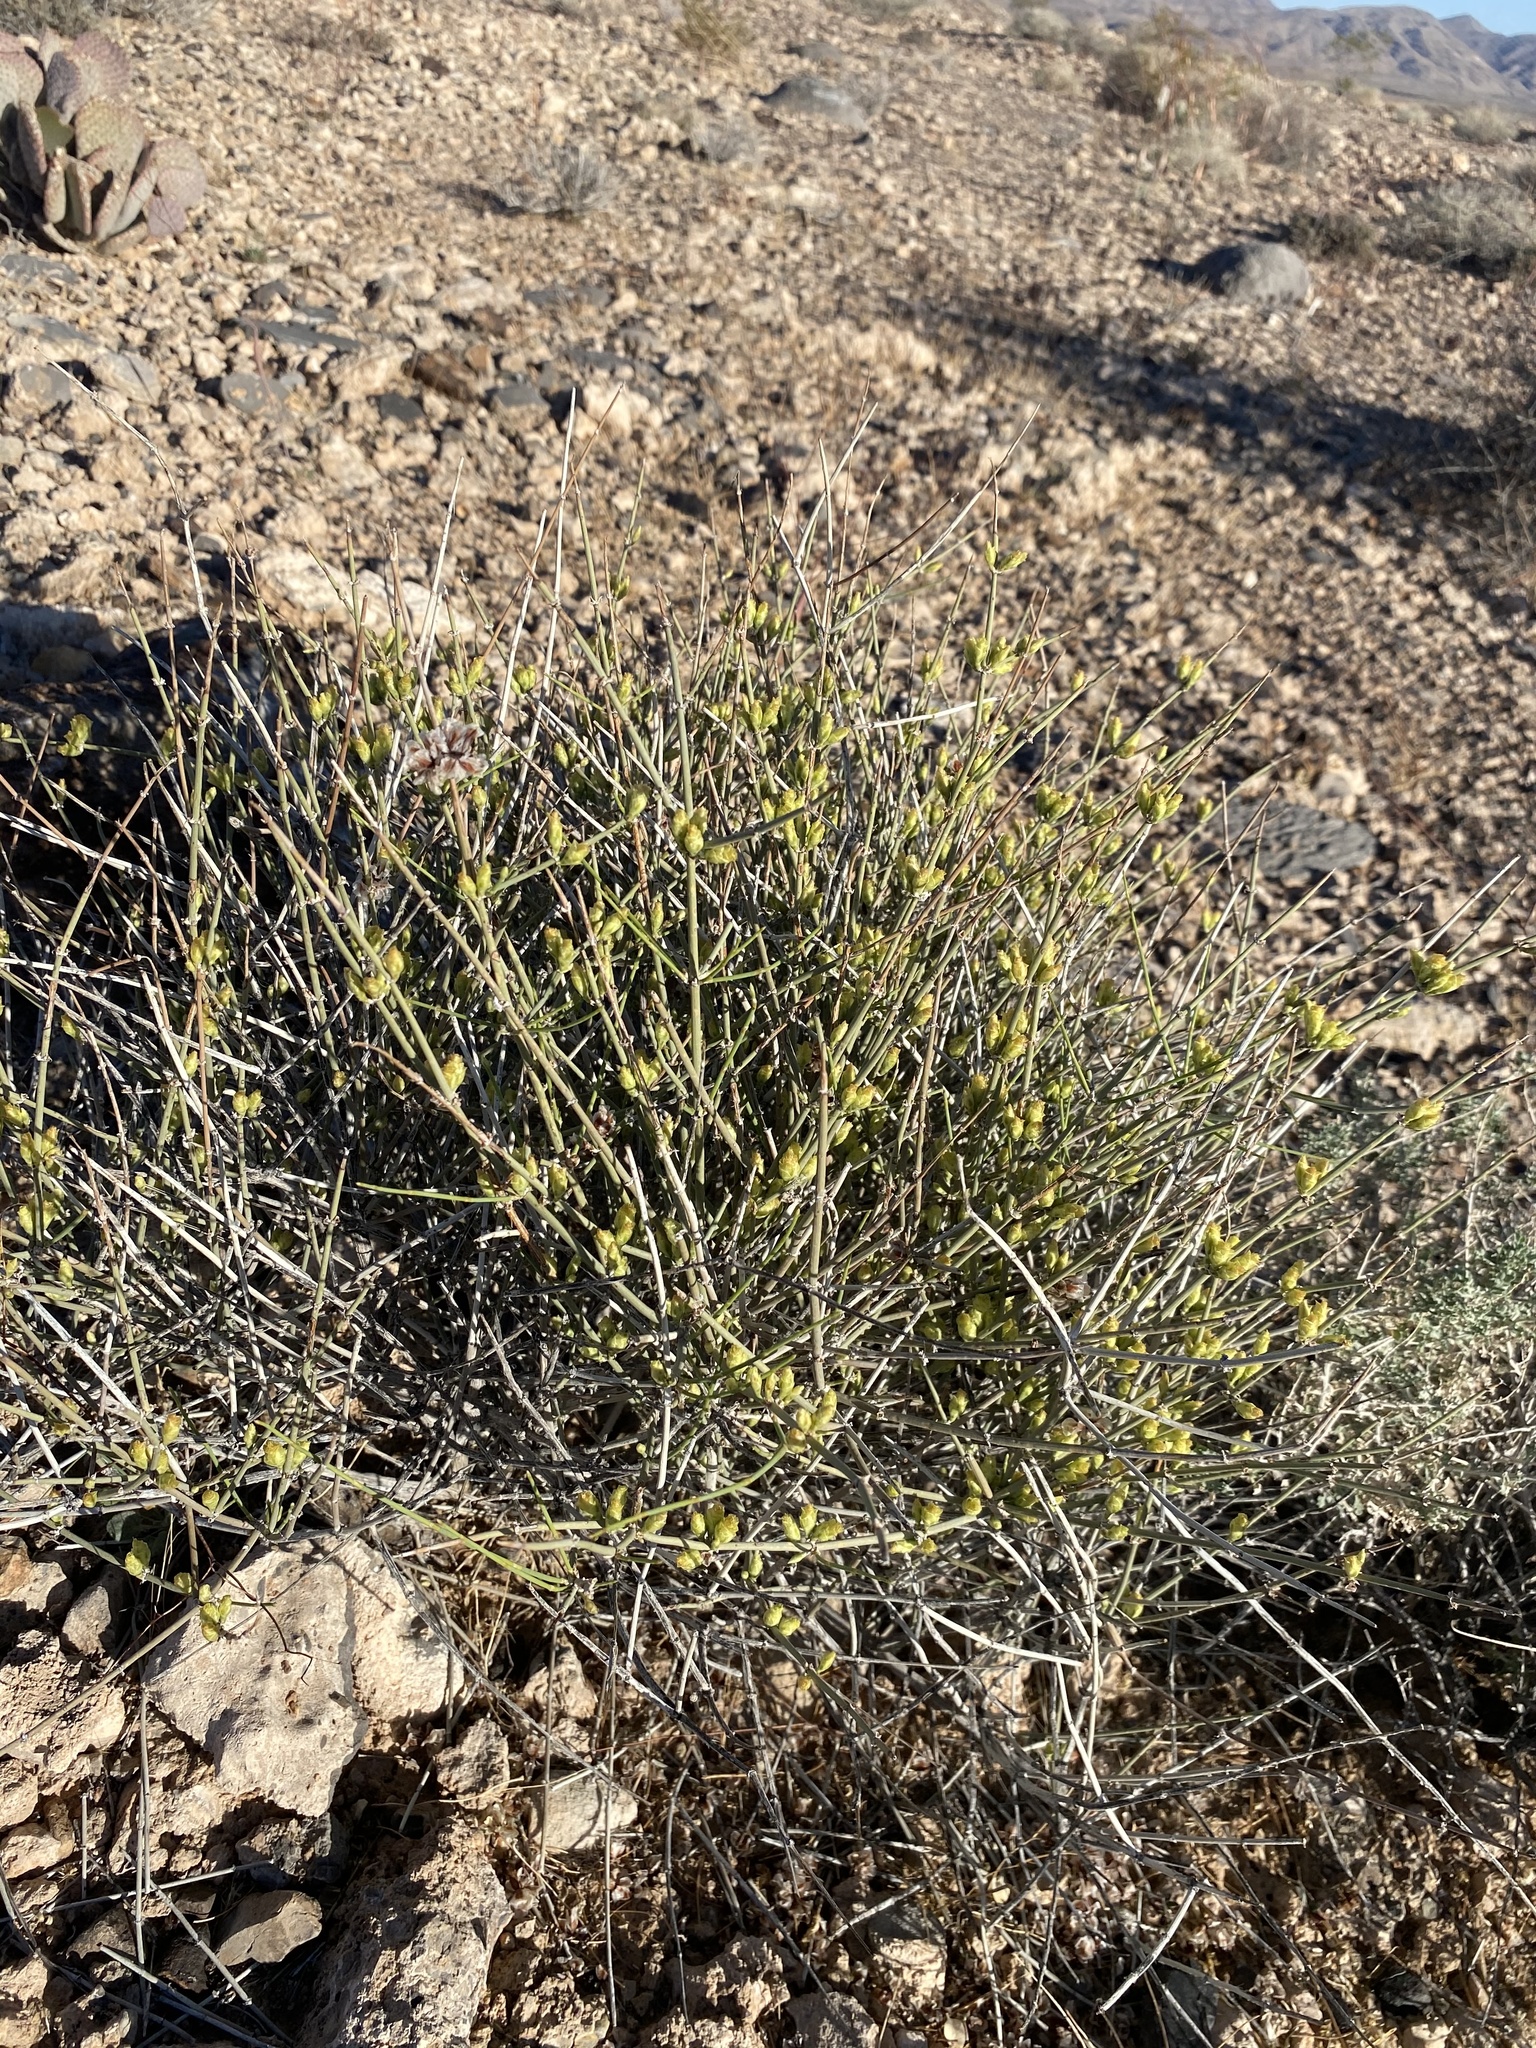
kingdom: Plantae
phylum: Tracheophyta
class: Gnetopsida
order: Ephedrales
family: Ephedraceae
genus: Ephedra
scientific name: Ephedra funerea
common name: Death valley mormon tea
